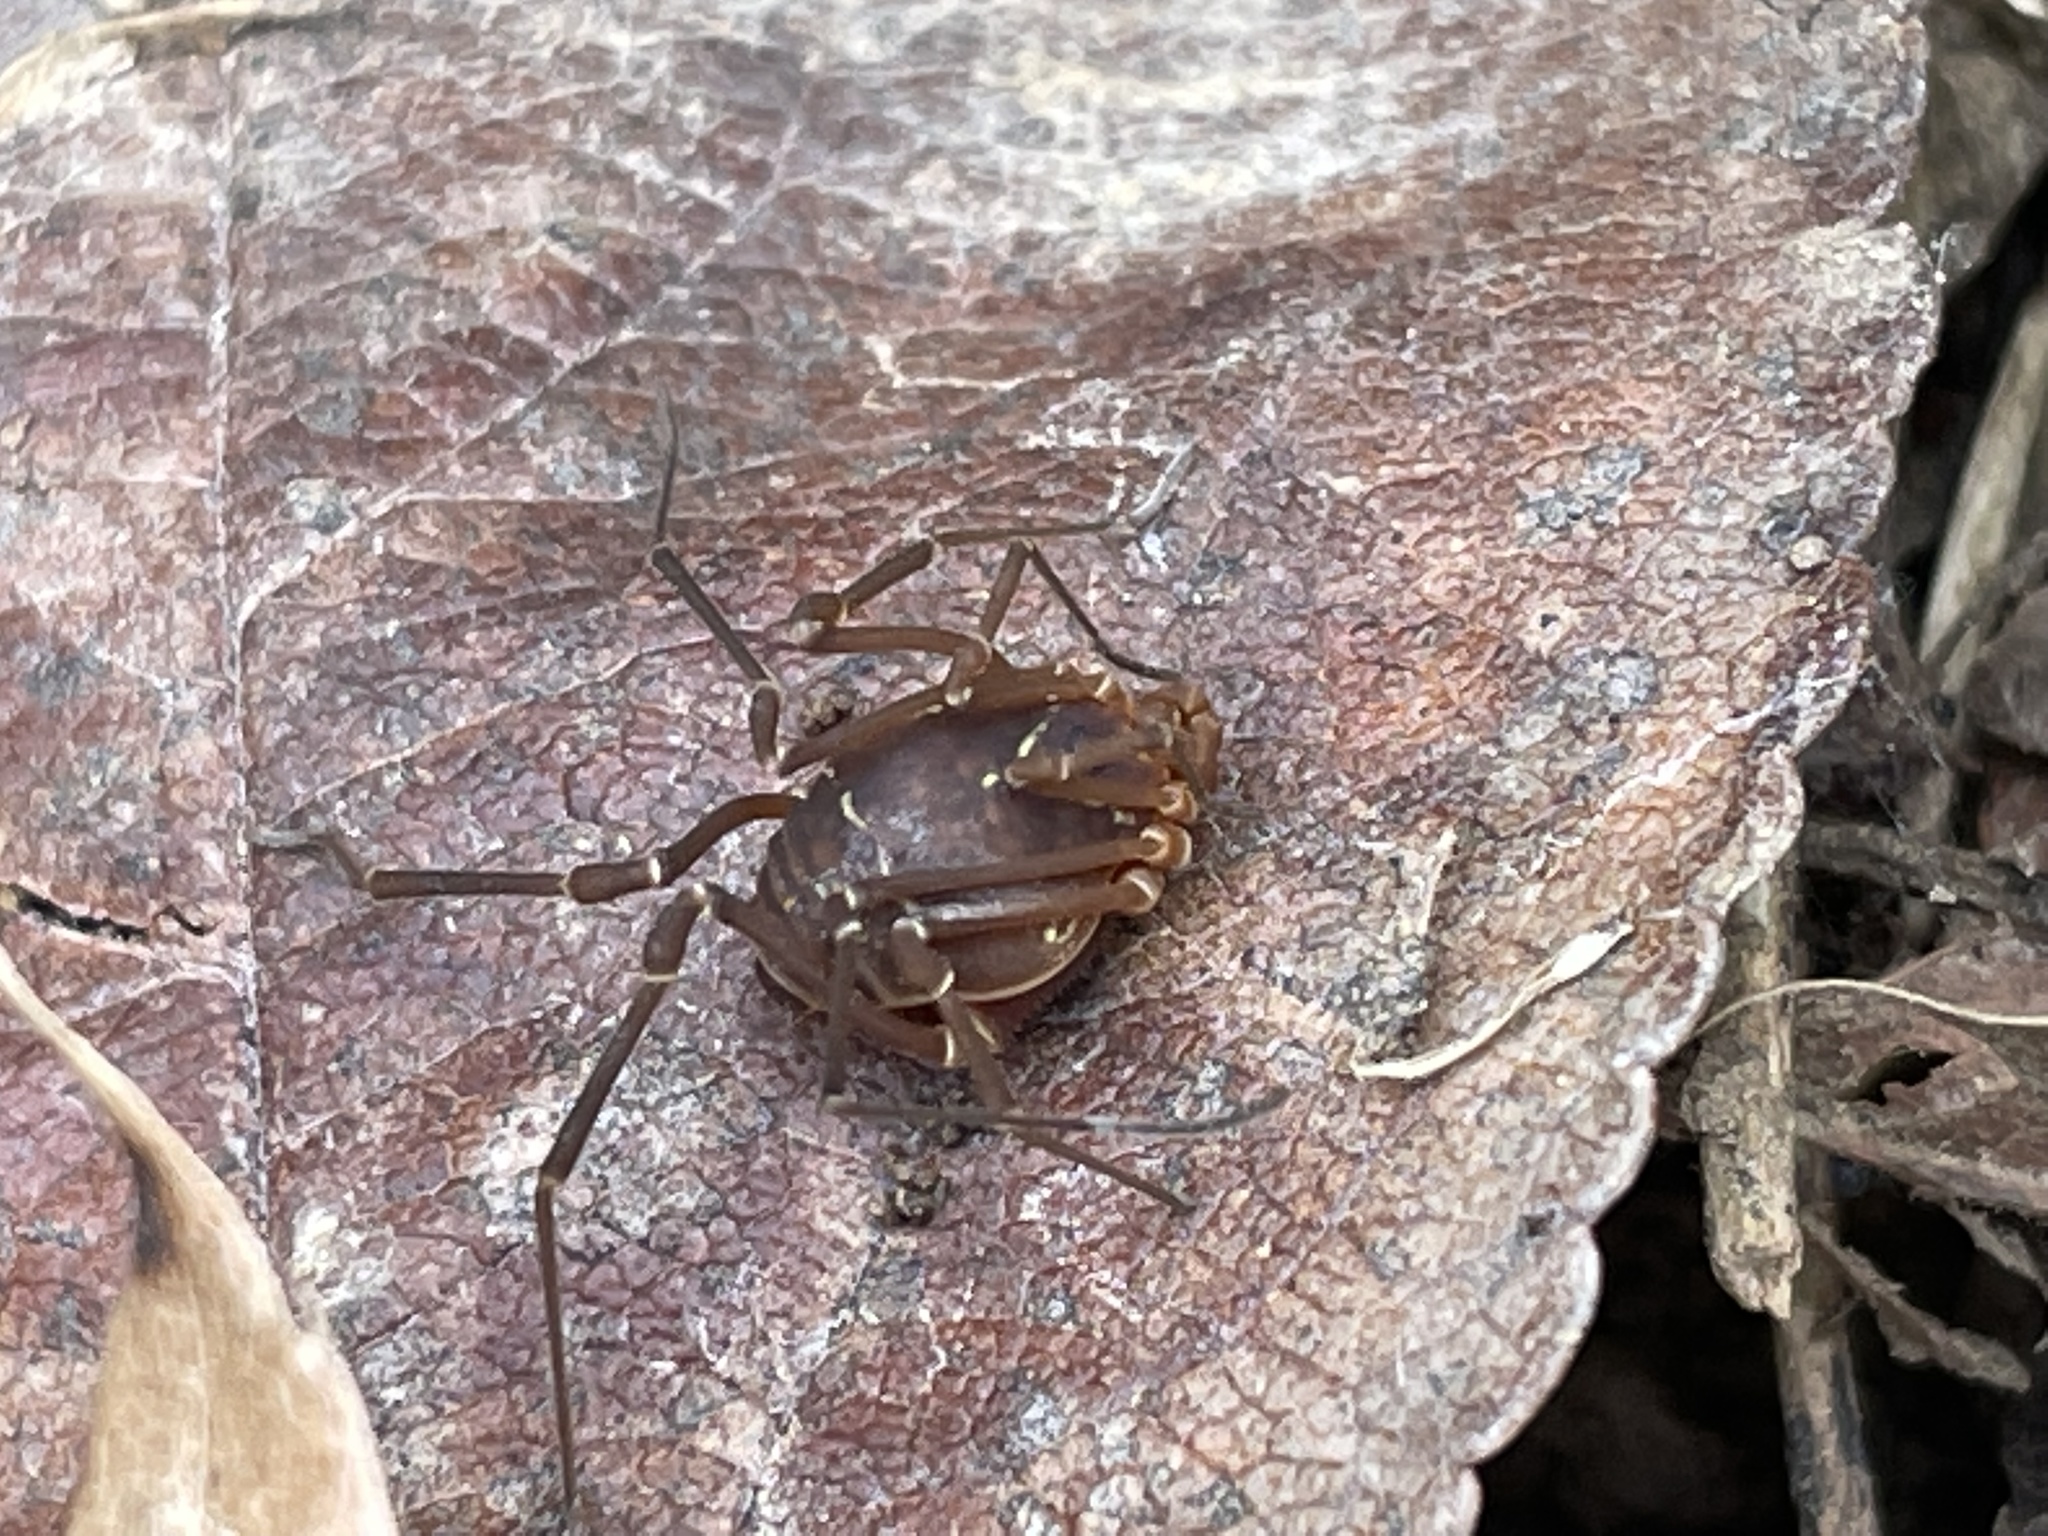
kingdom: Animalia
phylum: Arthropoda
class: Arachnida
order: Opiliones
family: Cosmetidae
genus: Libitioides
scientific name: Libitioides sayi
